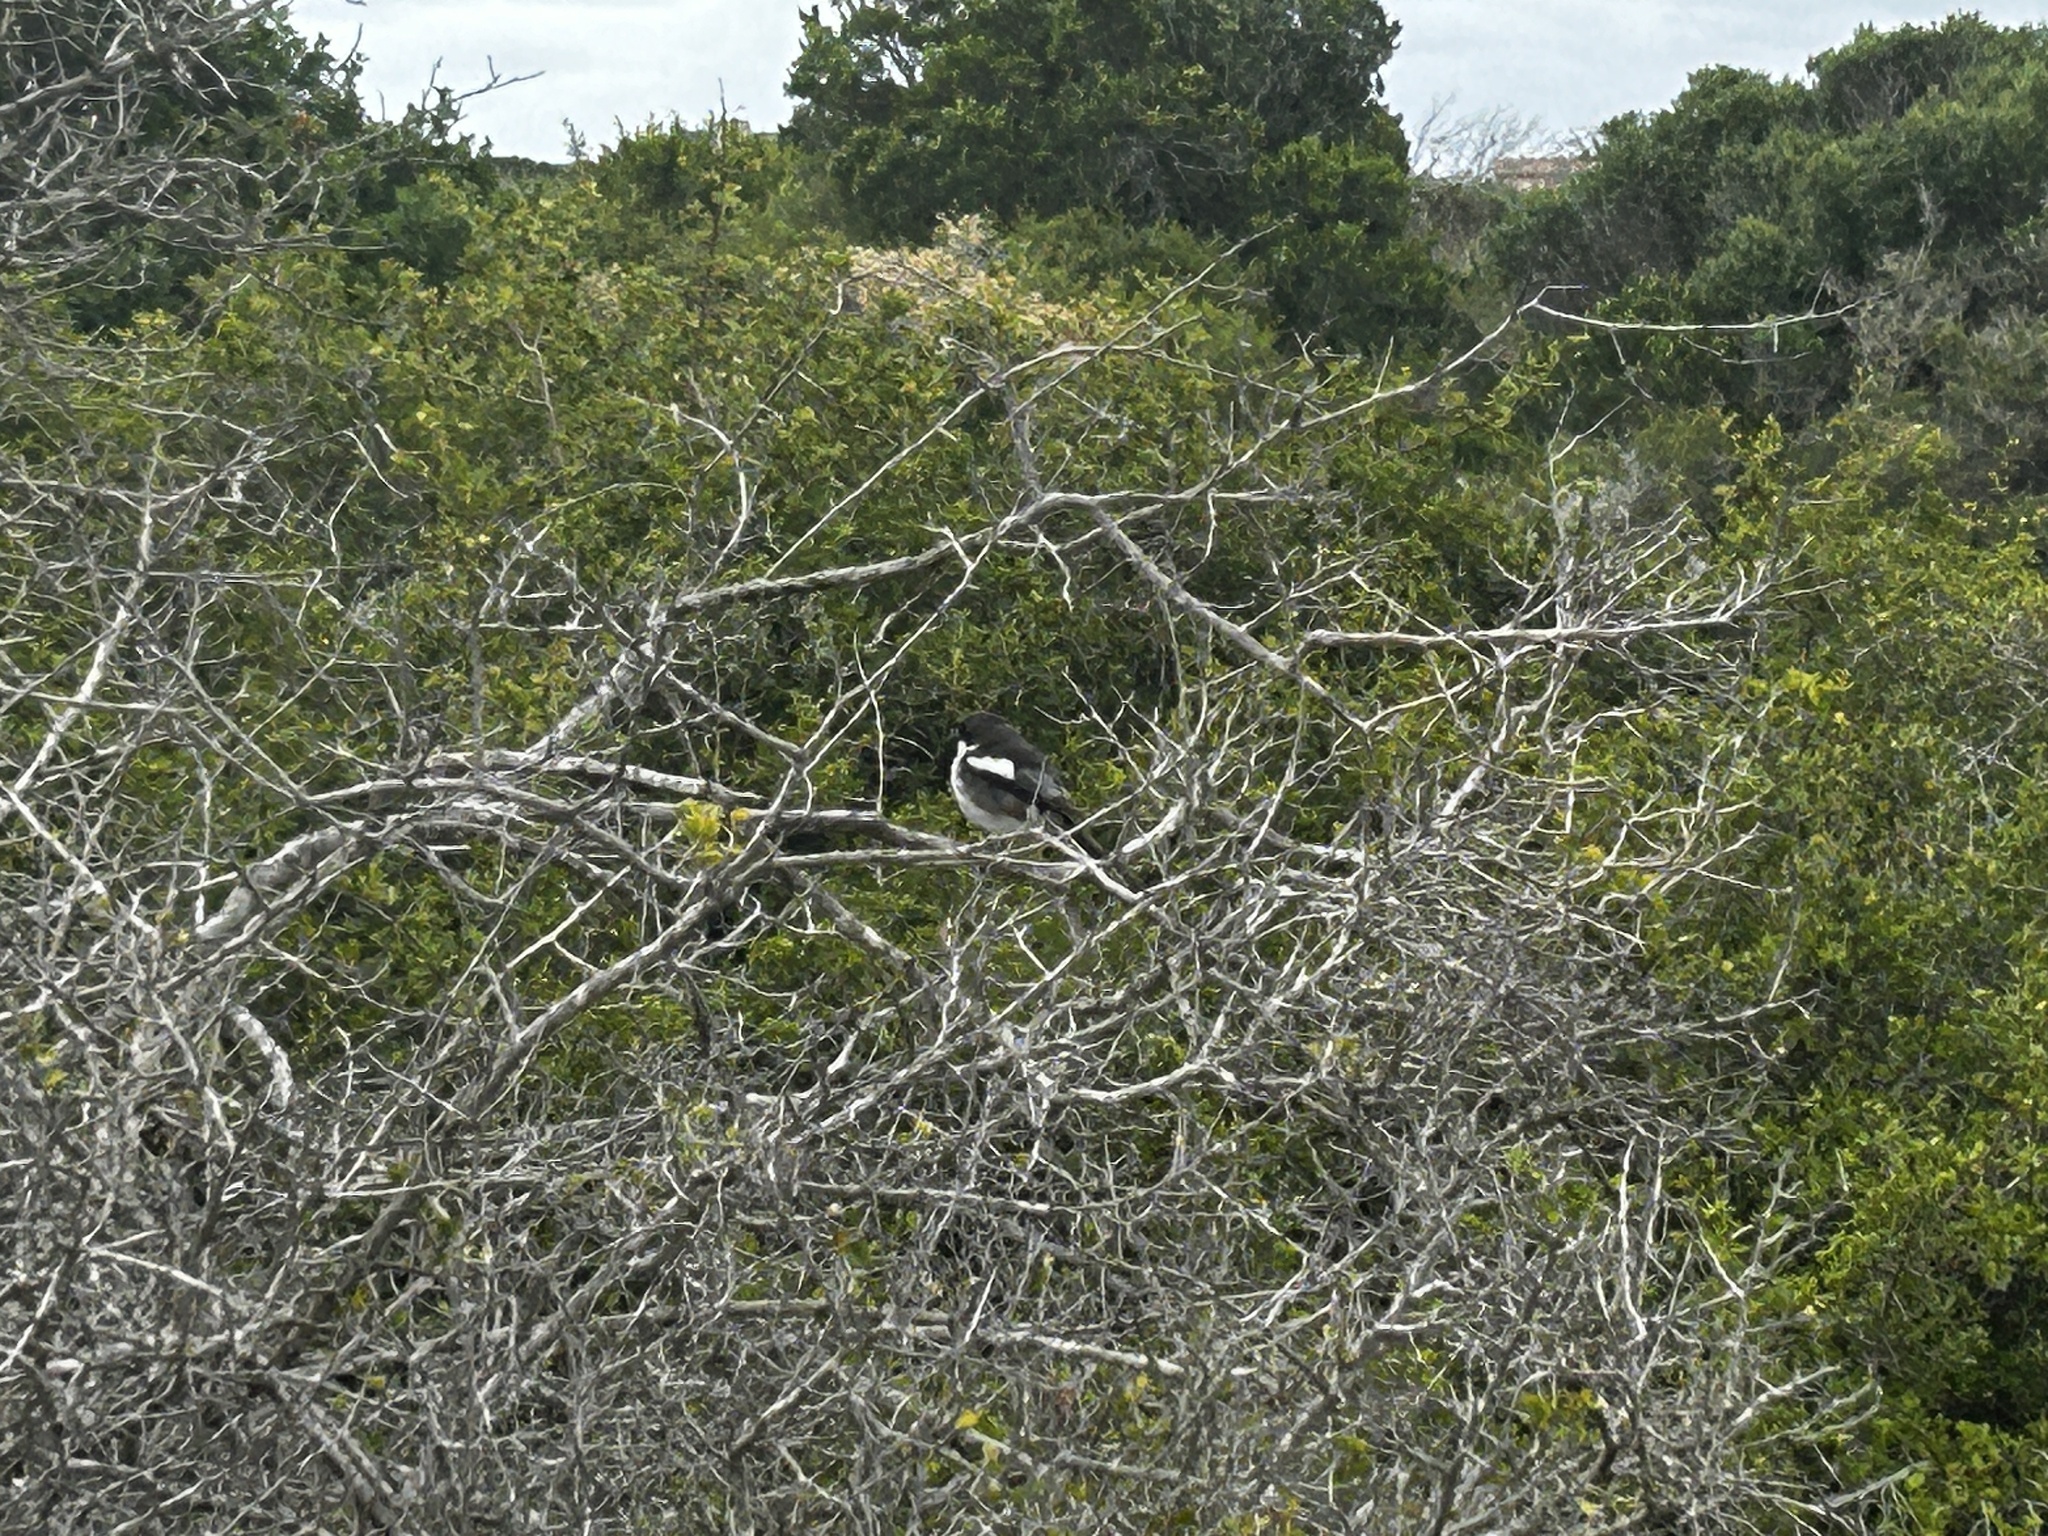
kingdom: Animalia
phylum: Chordata
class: Aves
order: Passeriformes
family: Laniidae
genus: Lanius
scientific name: Lanius collaris
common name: Southern fiscal
